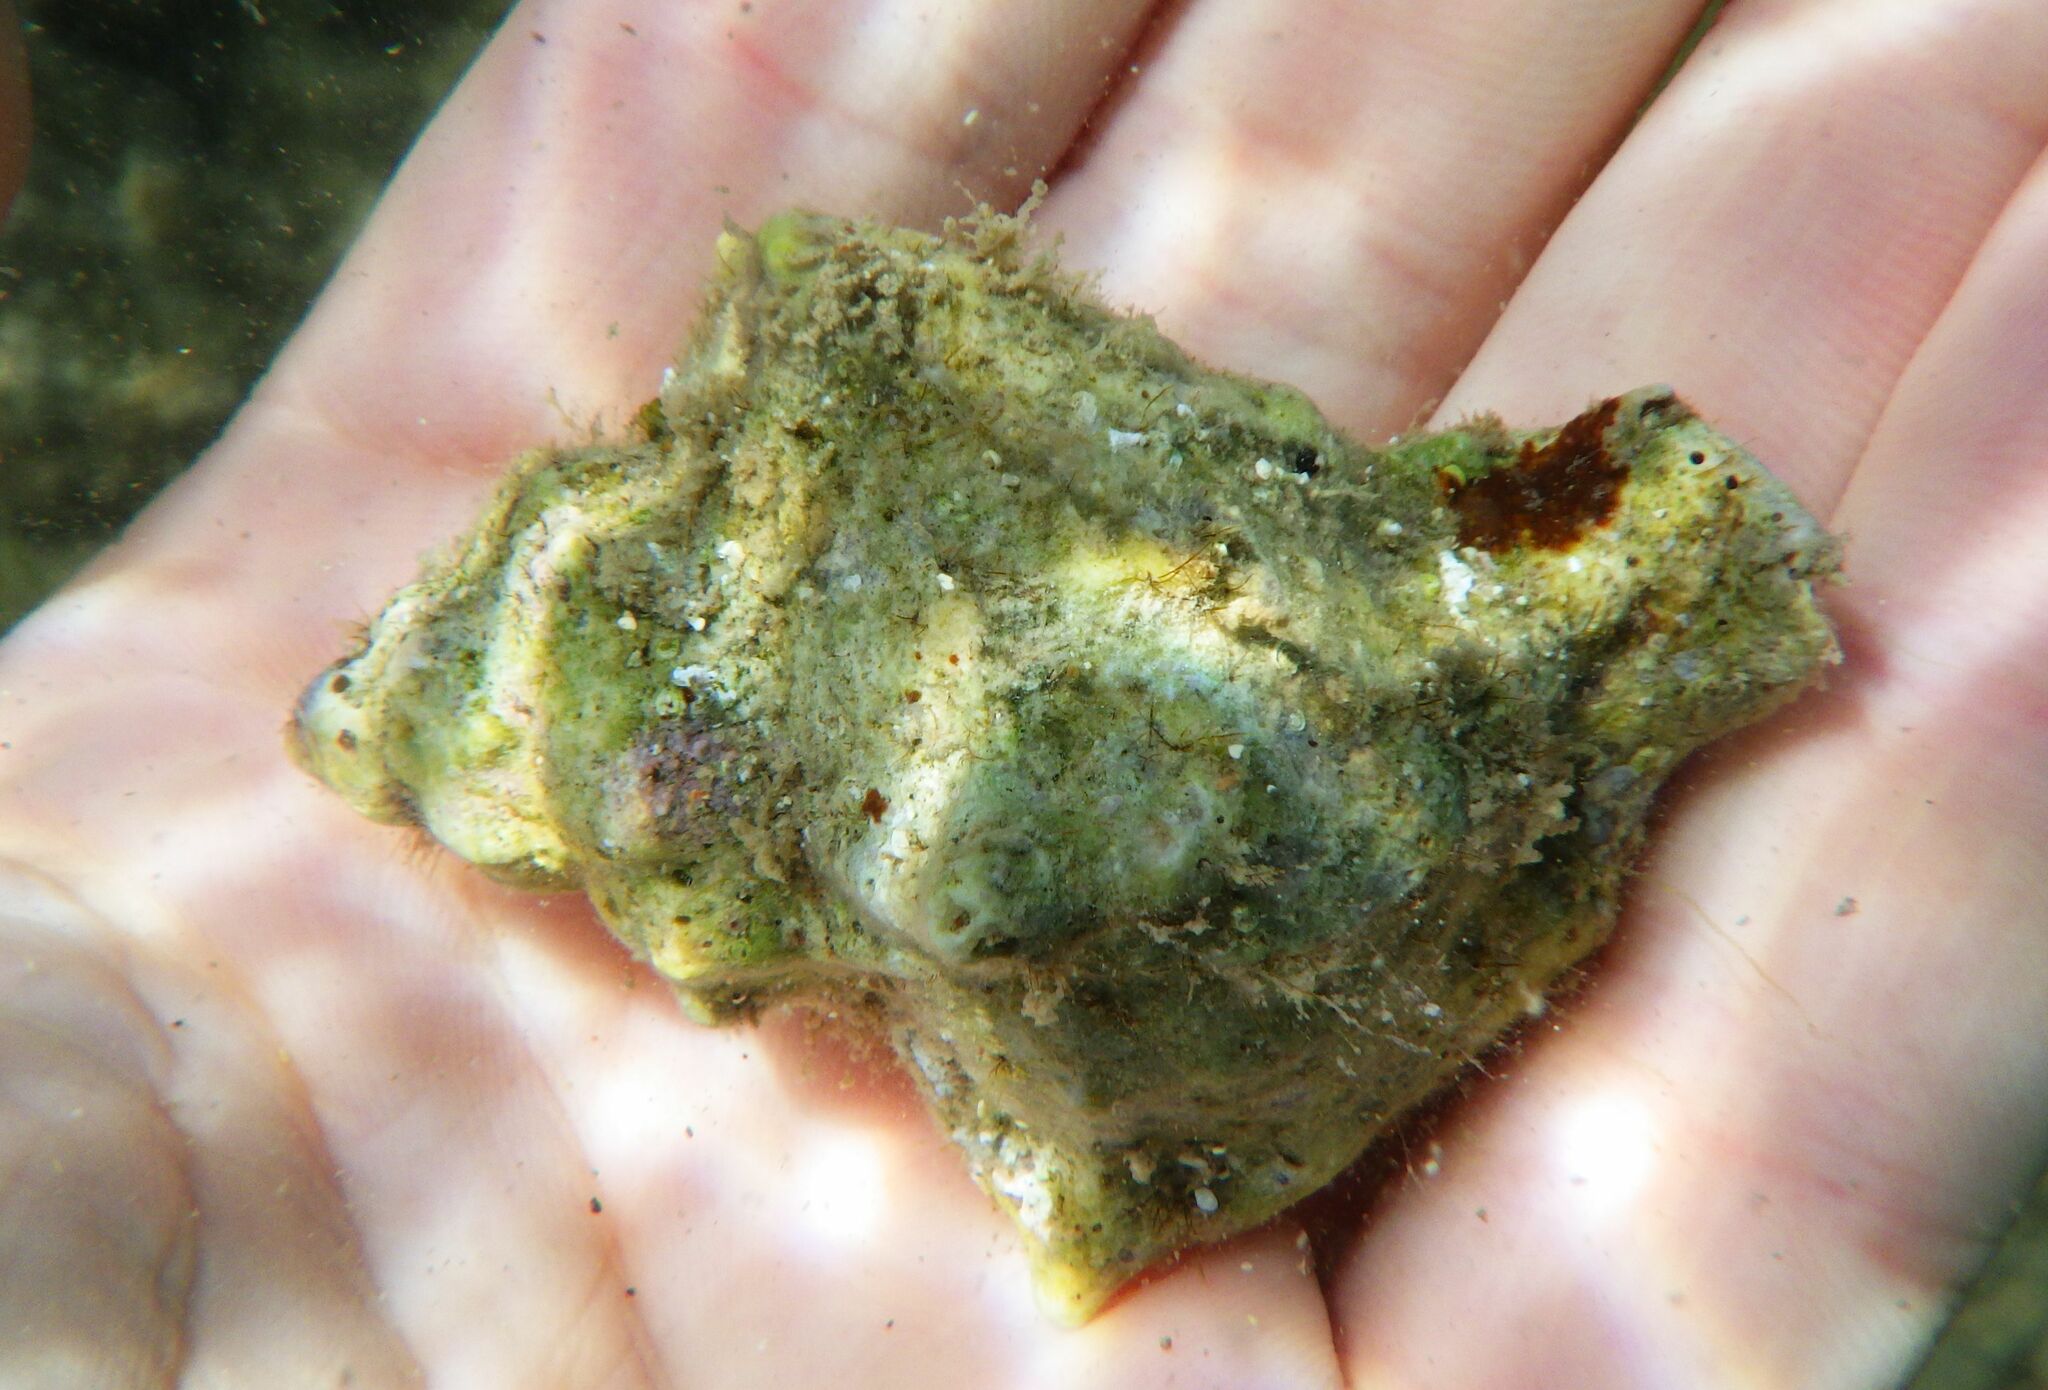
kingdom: Animalia
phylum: Mollusca
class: Gastropoda
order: Neogastropoda
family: Muricidae
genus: Hexaplex
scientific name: Hexaplex trunculus
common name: Banded dye-murex
